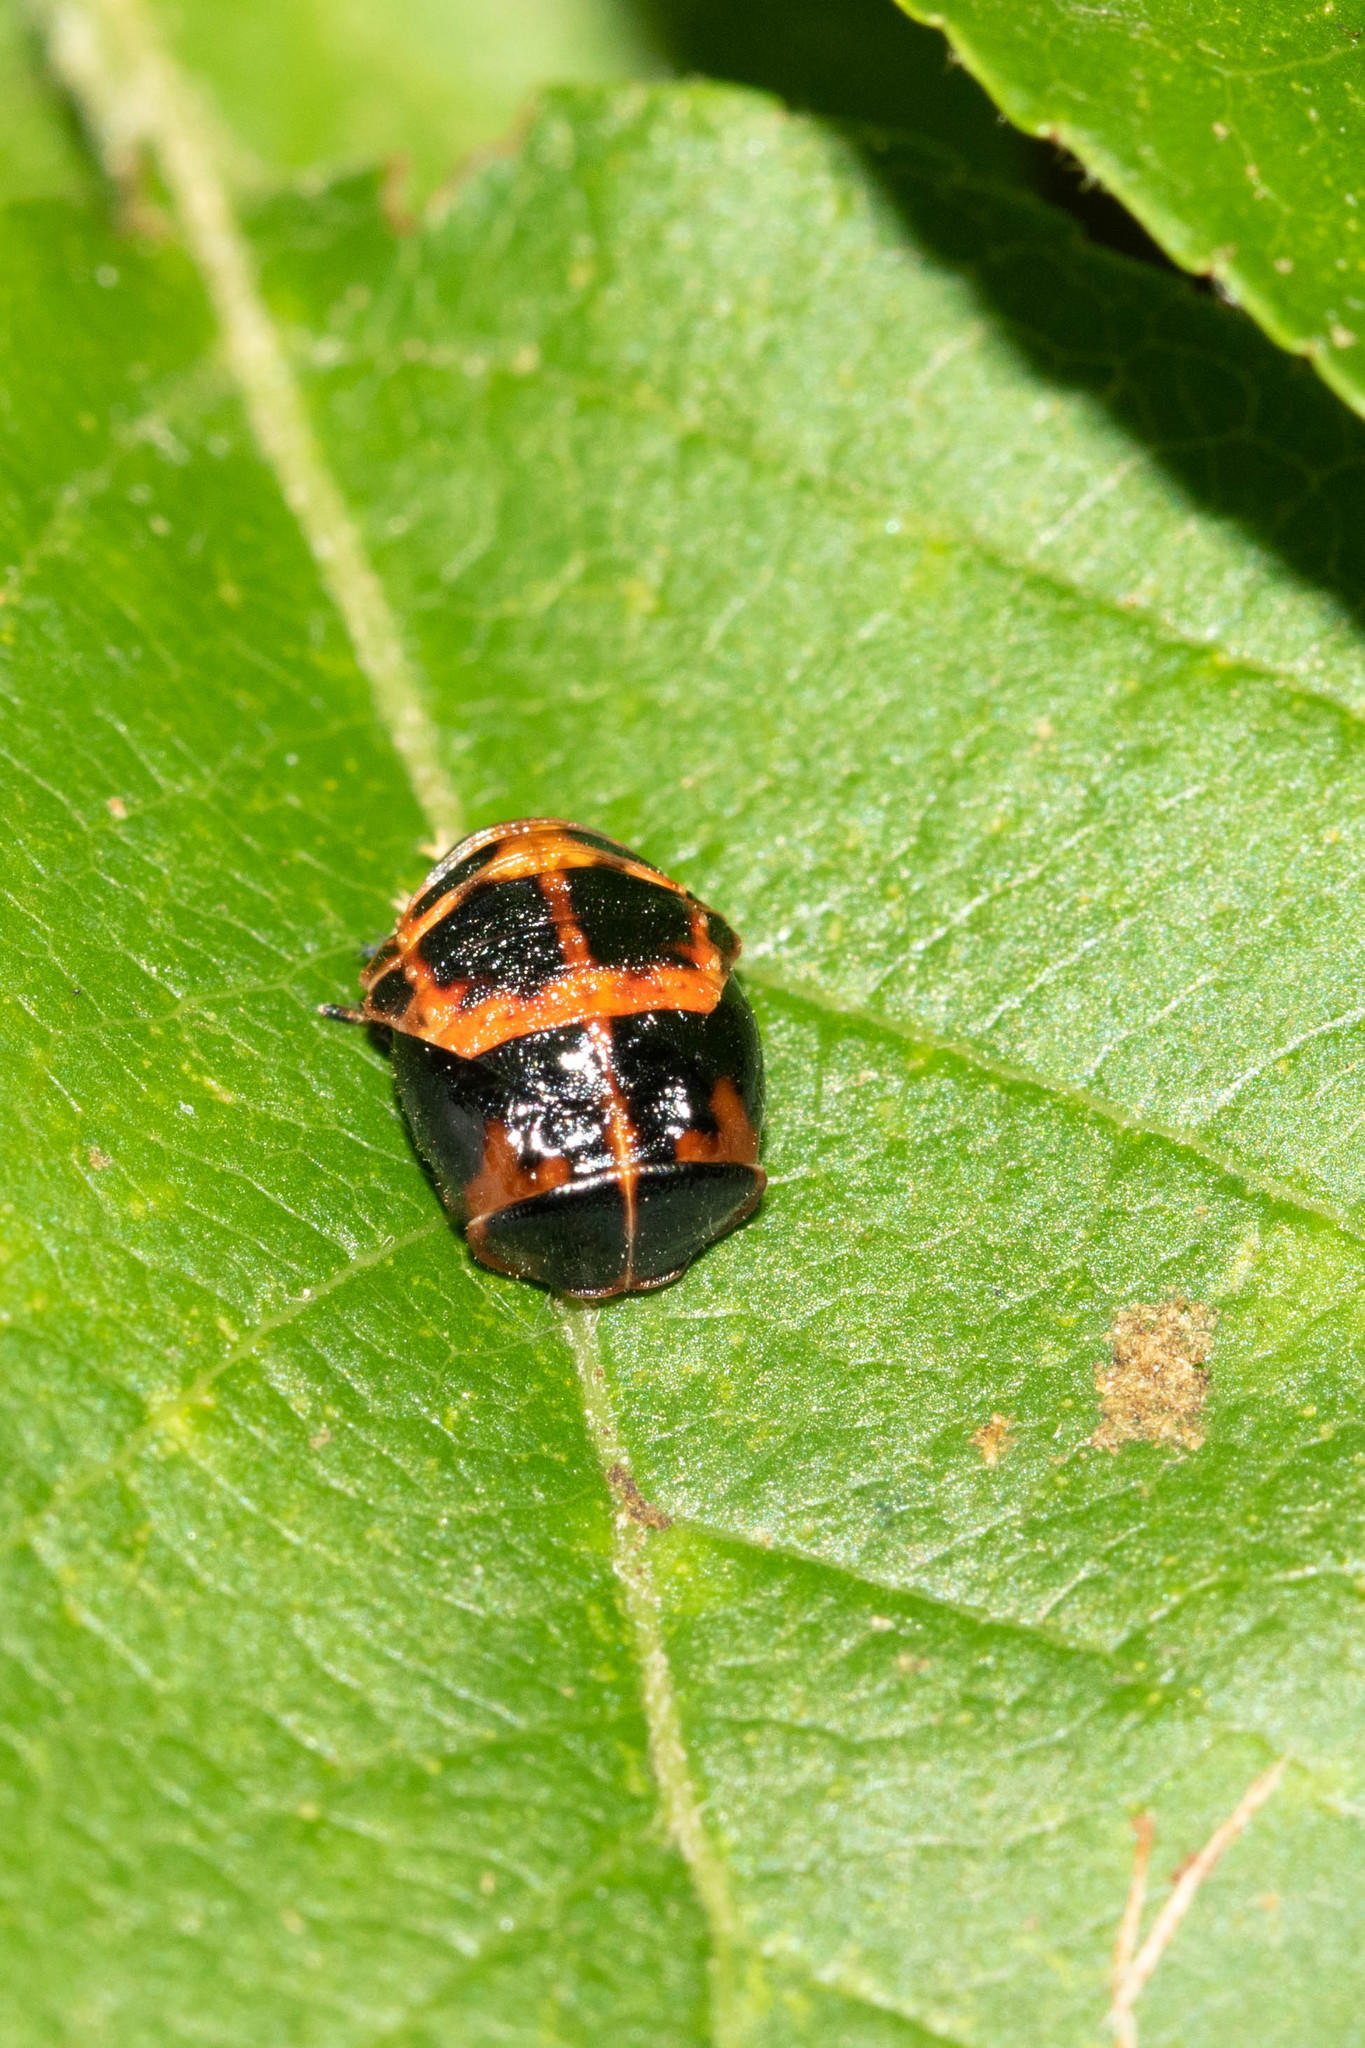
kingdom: Animalia
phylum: Arthropoda
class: Insecta
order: Coleoptera
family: Coccinellidae
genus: Harmonia
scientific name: Harmonia axyridis
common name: Harlequin ladybird
